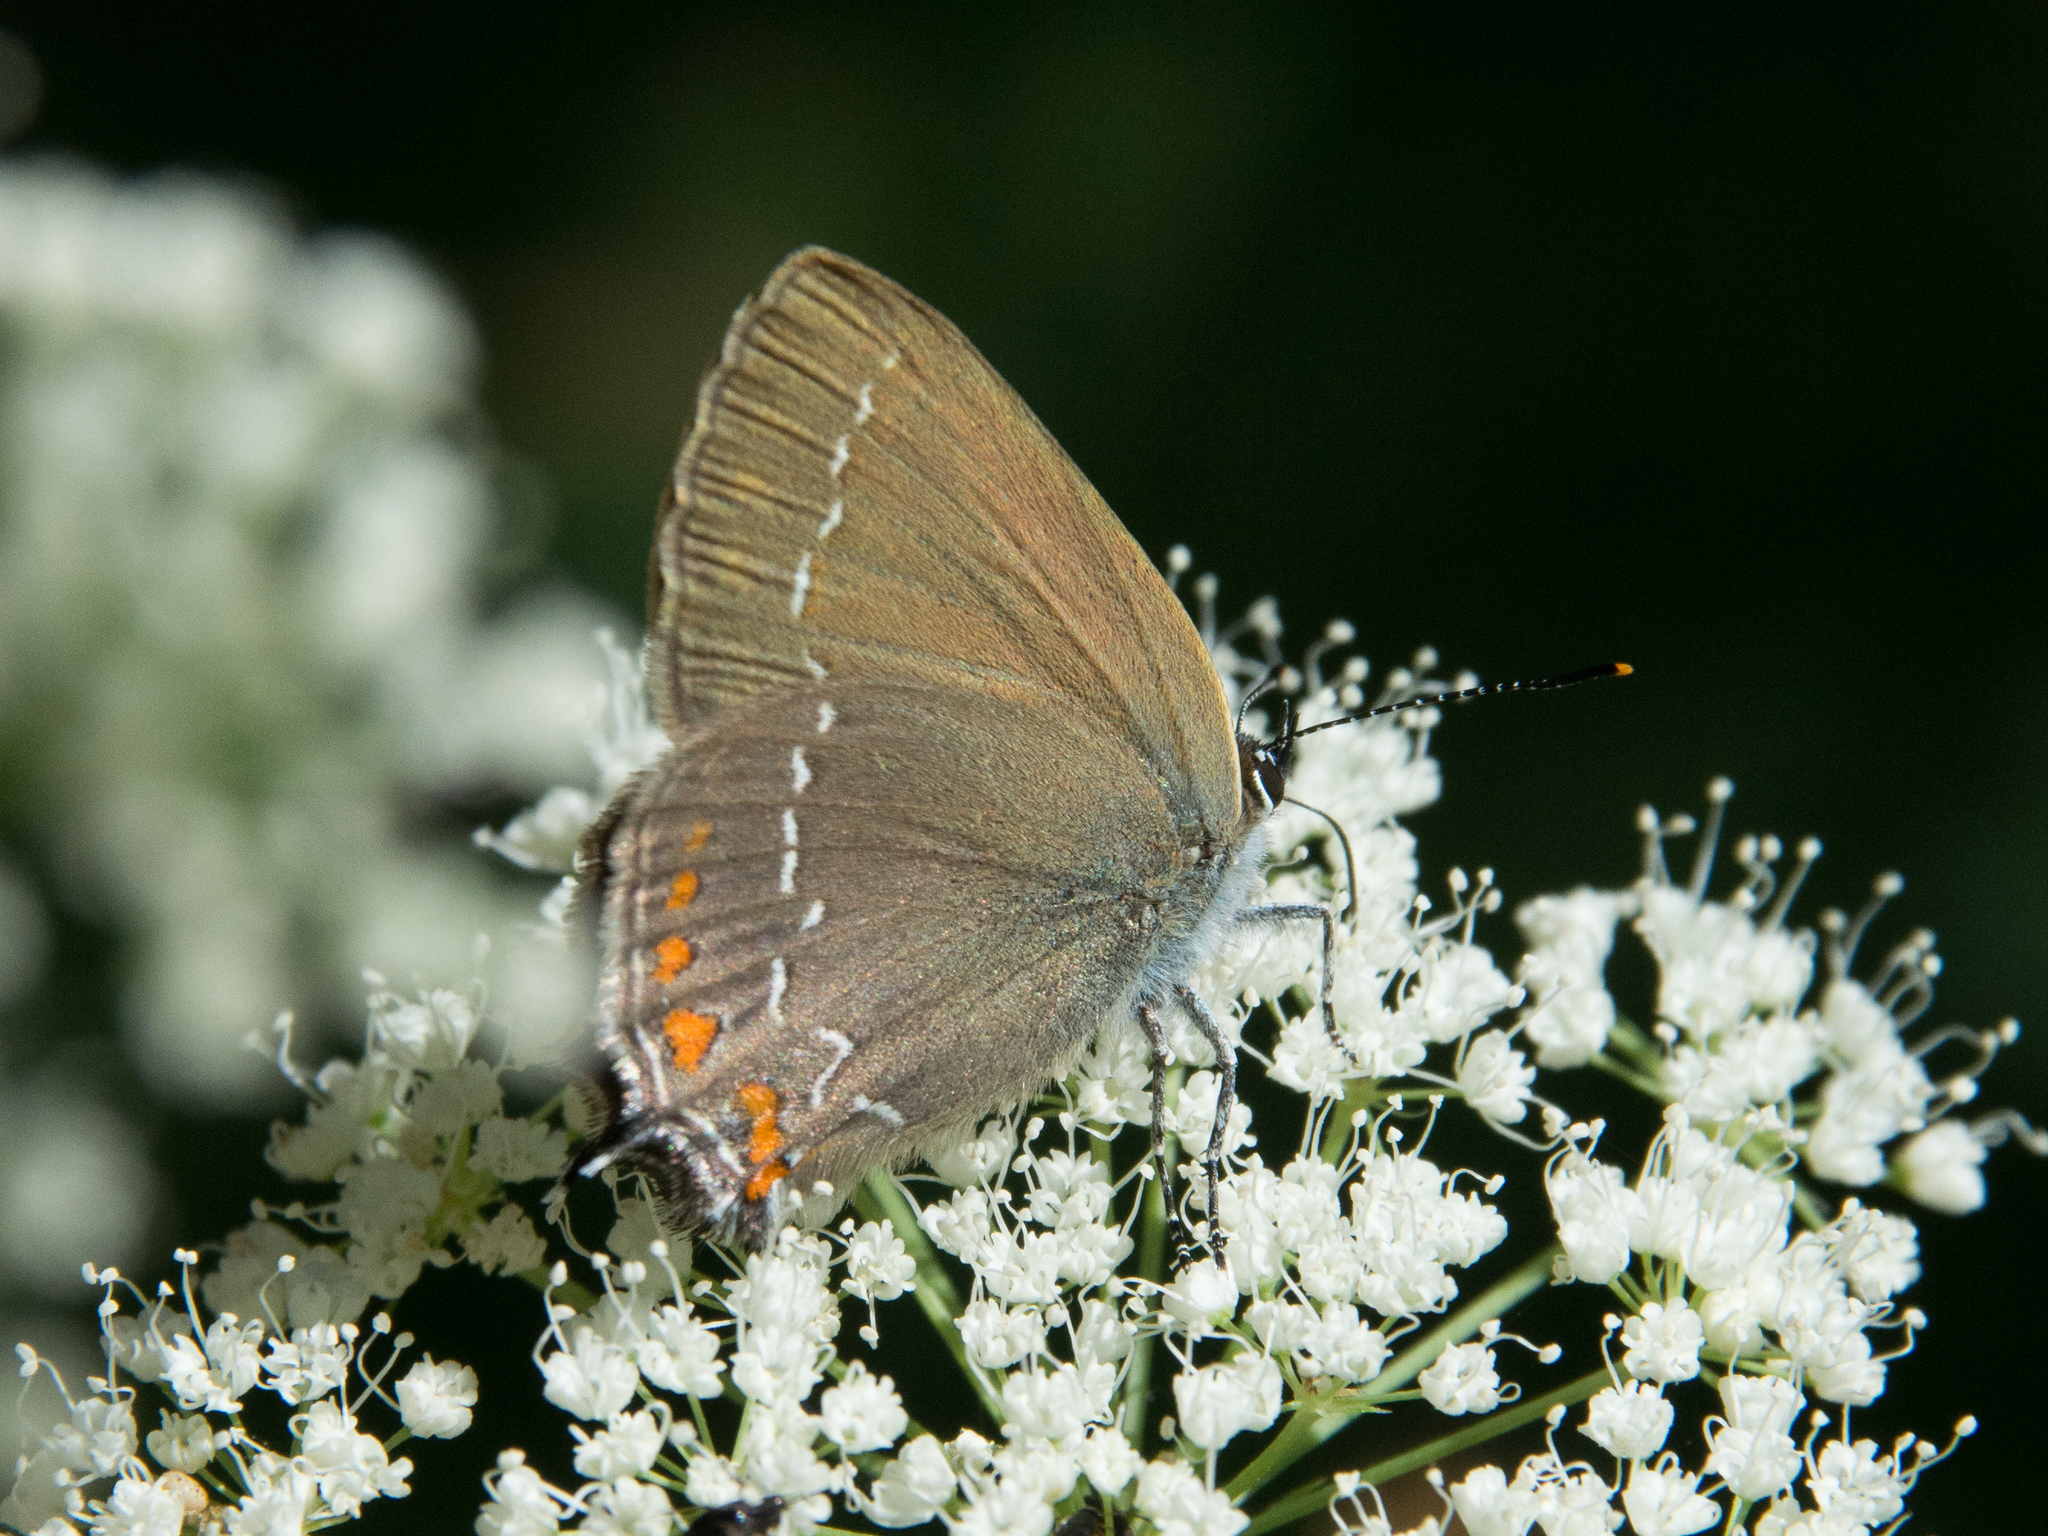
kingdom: Animalia
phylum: Arthropoda
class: Insecta
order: Lepidoptera
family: Lycaenidae
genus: Nordmannia
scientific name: Nordmannia ilicis
